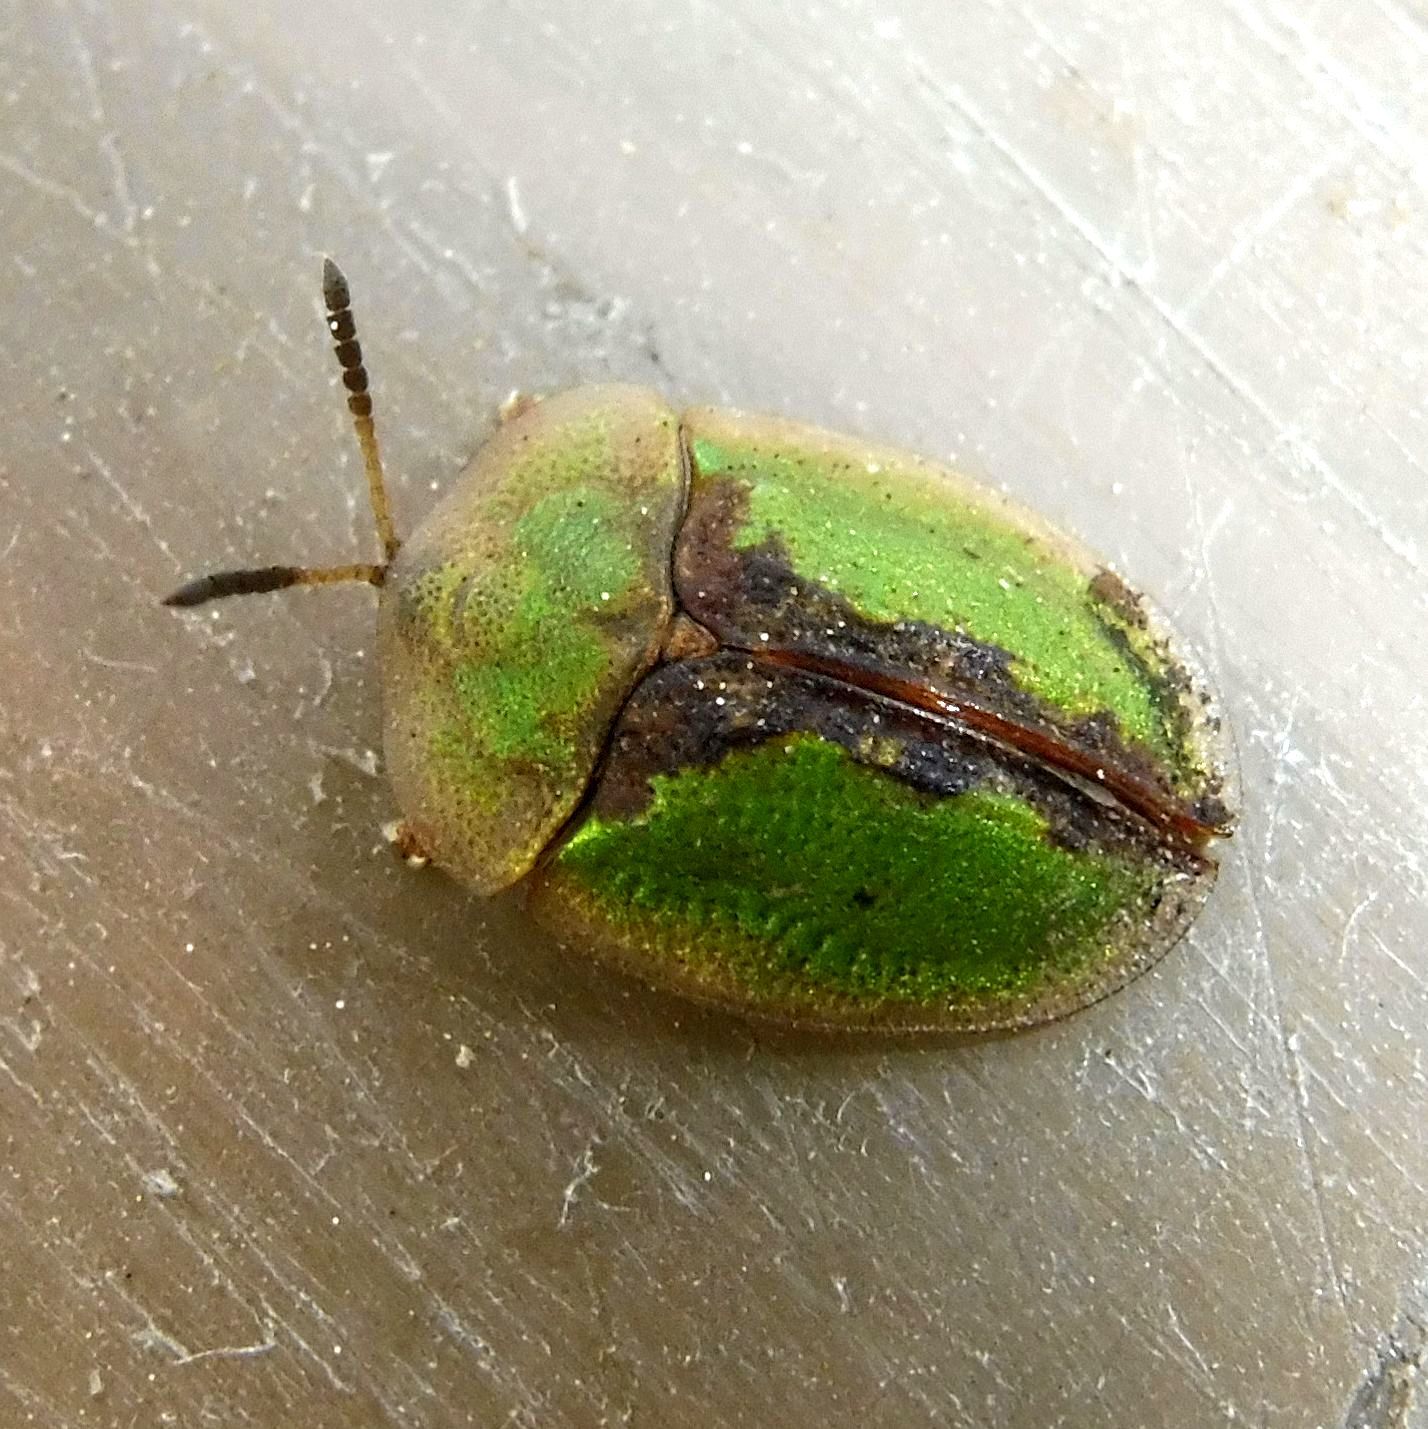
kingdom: Animalia
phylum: Arthropoda
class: Insecta
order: Coleoptera
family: Chrysomelidae
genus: Cassida
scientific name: Cassida vibex
